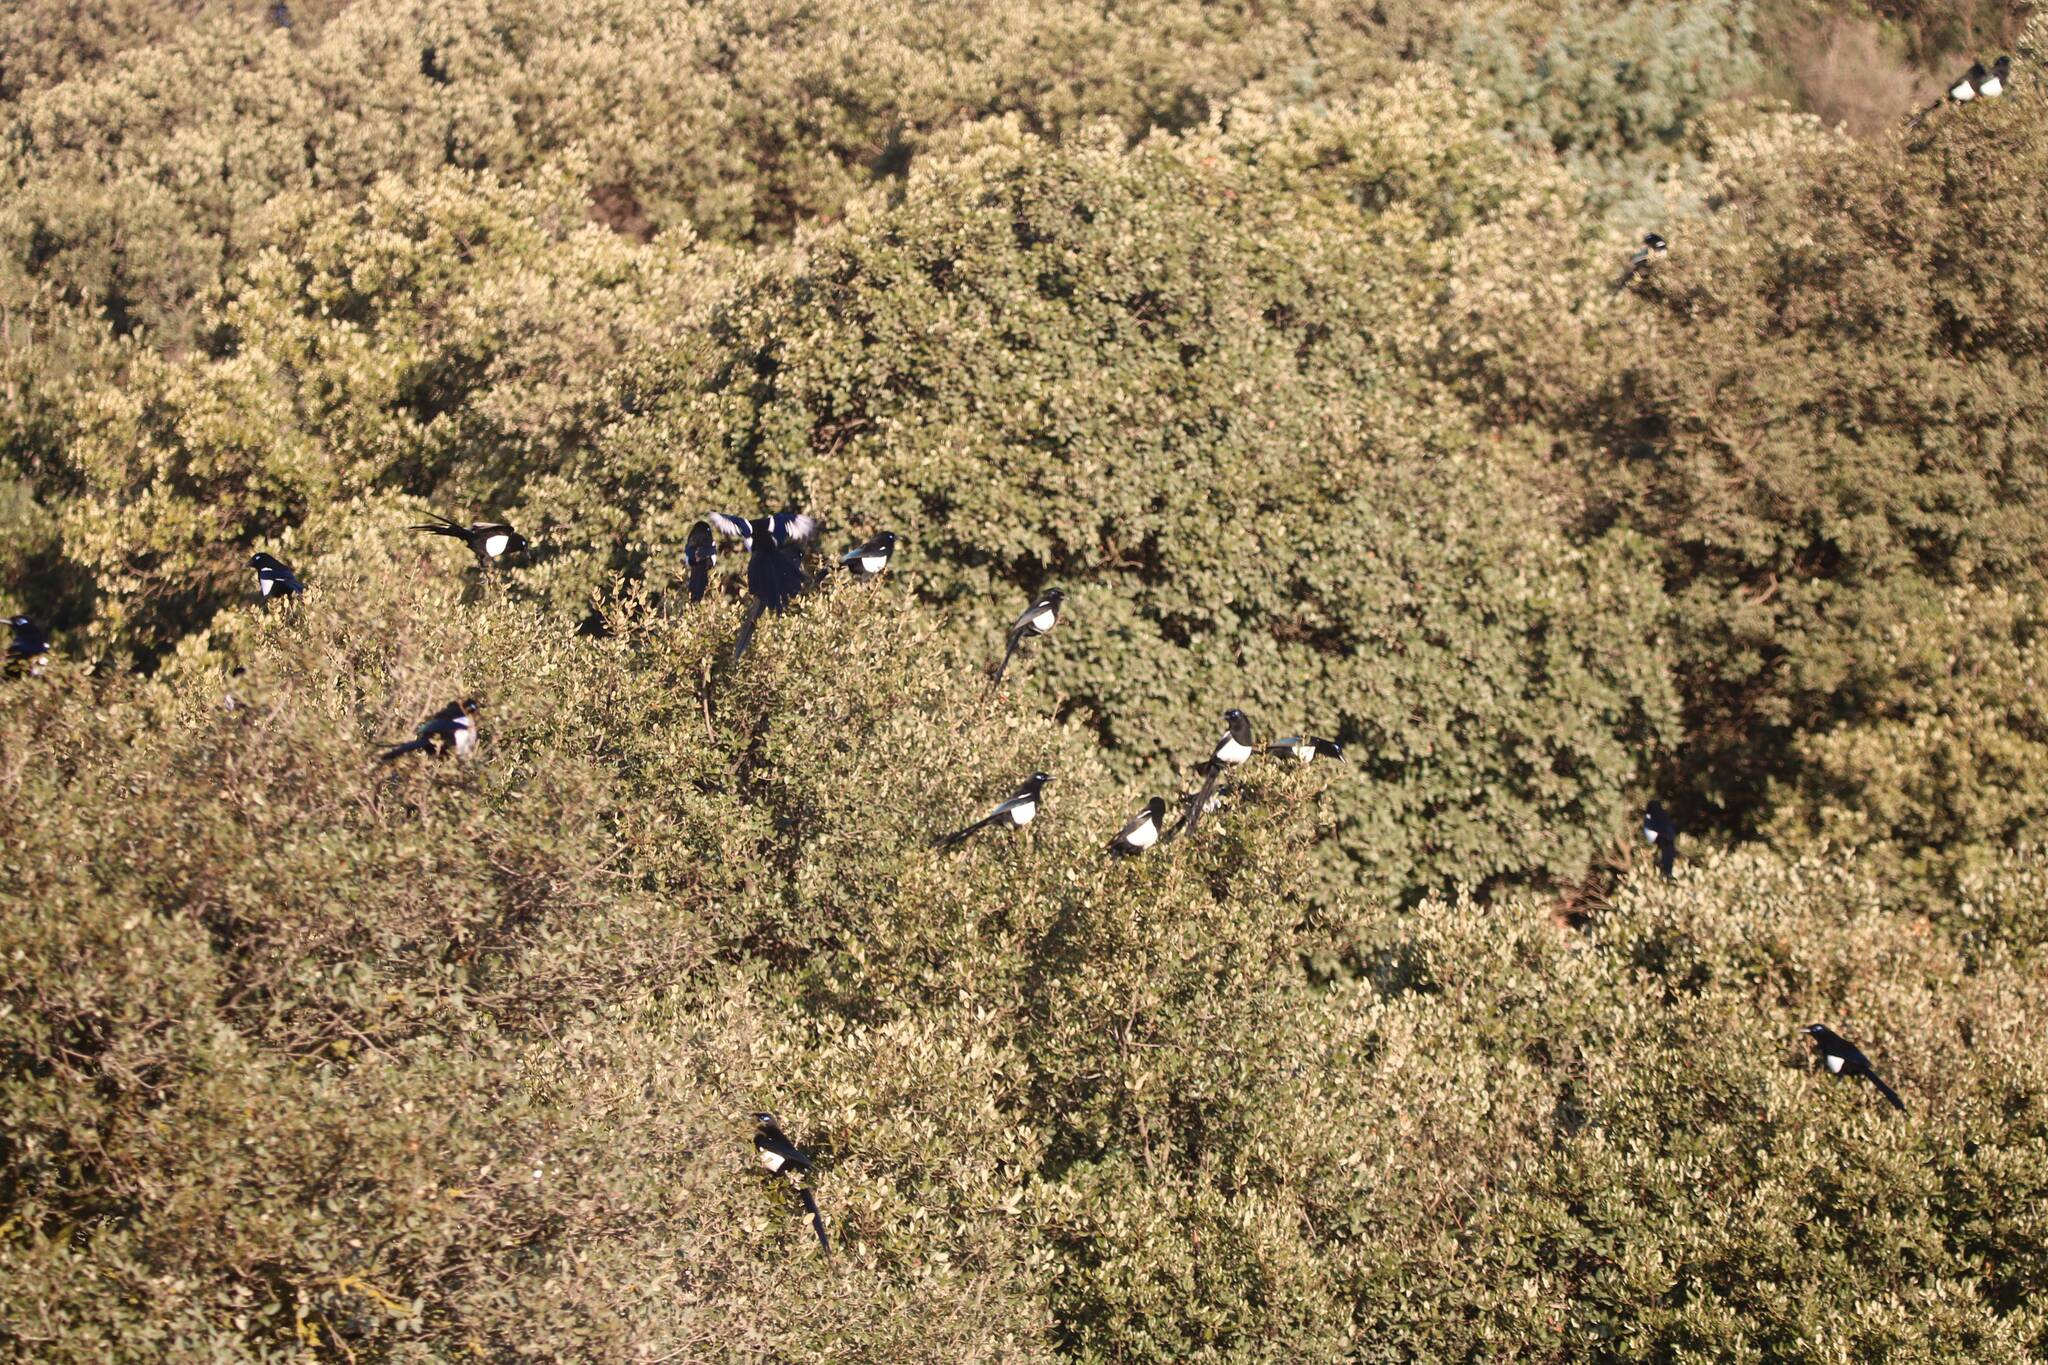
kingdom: Animalia
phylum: Chordata
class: Aves
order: Passeriformes
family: Corvidae
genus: Pica
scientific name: Pica mauritanica
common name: Maghreb magpie
